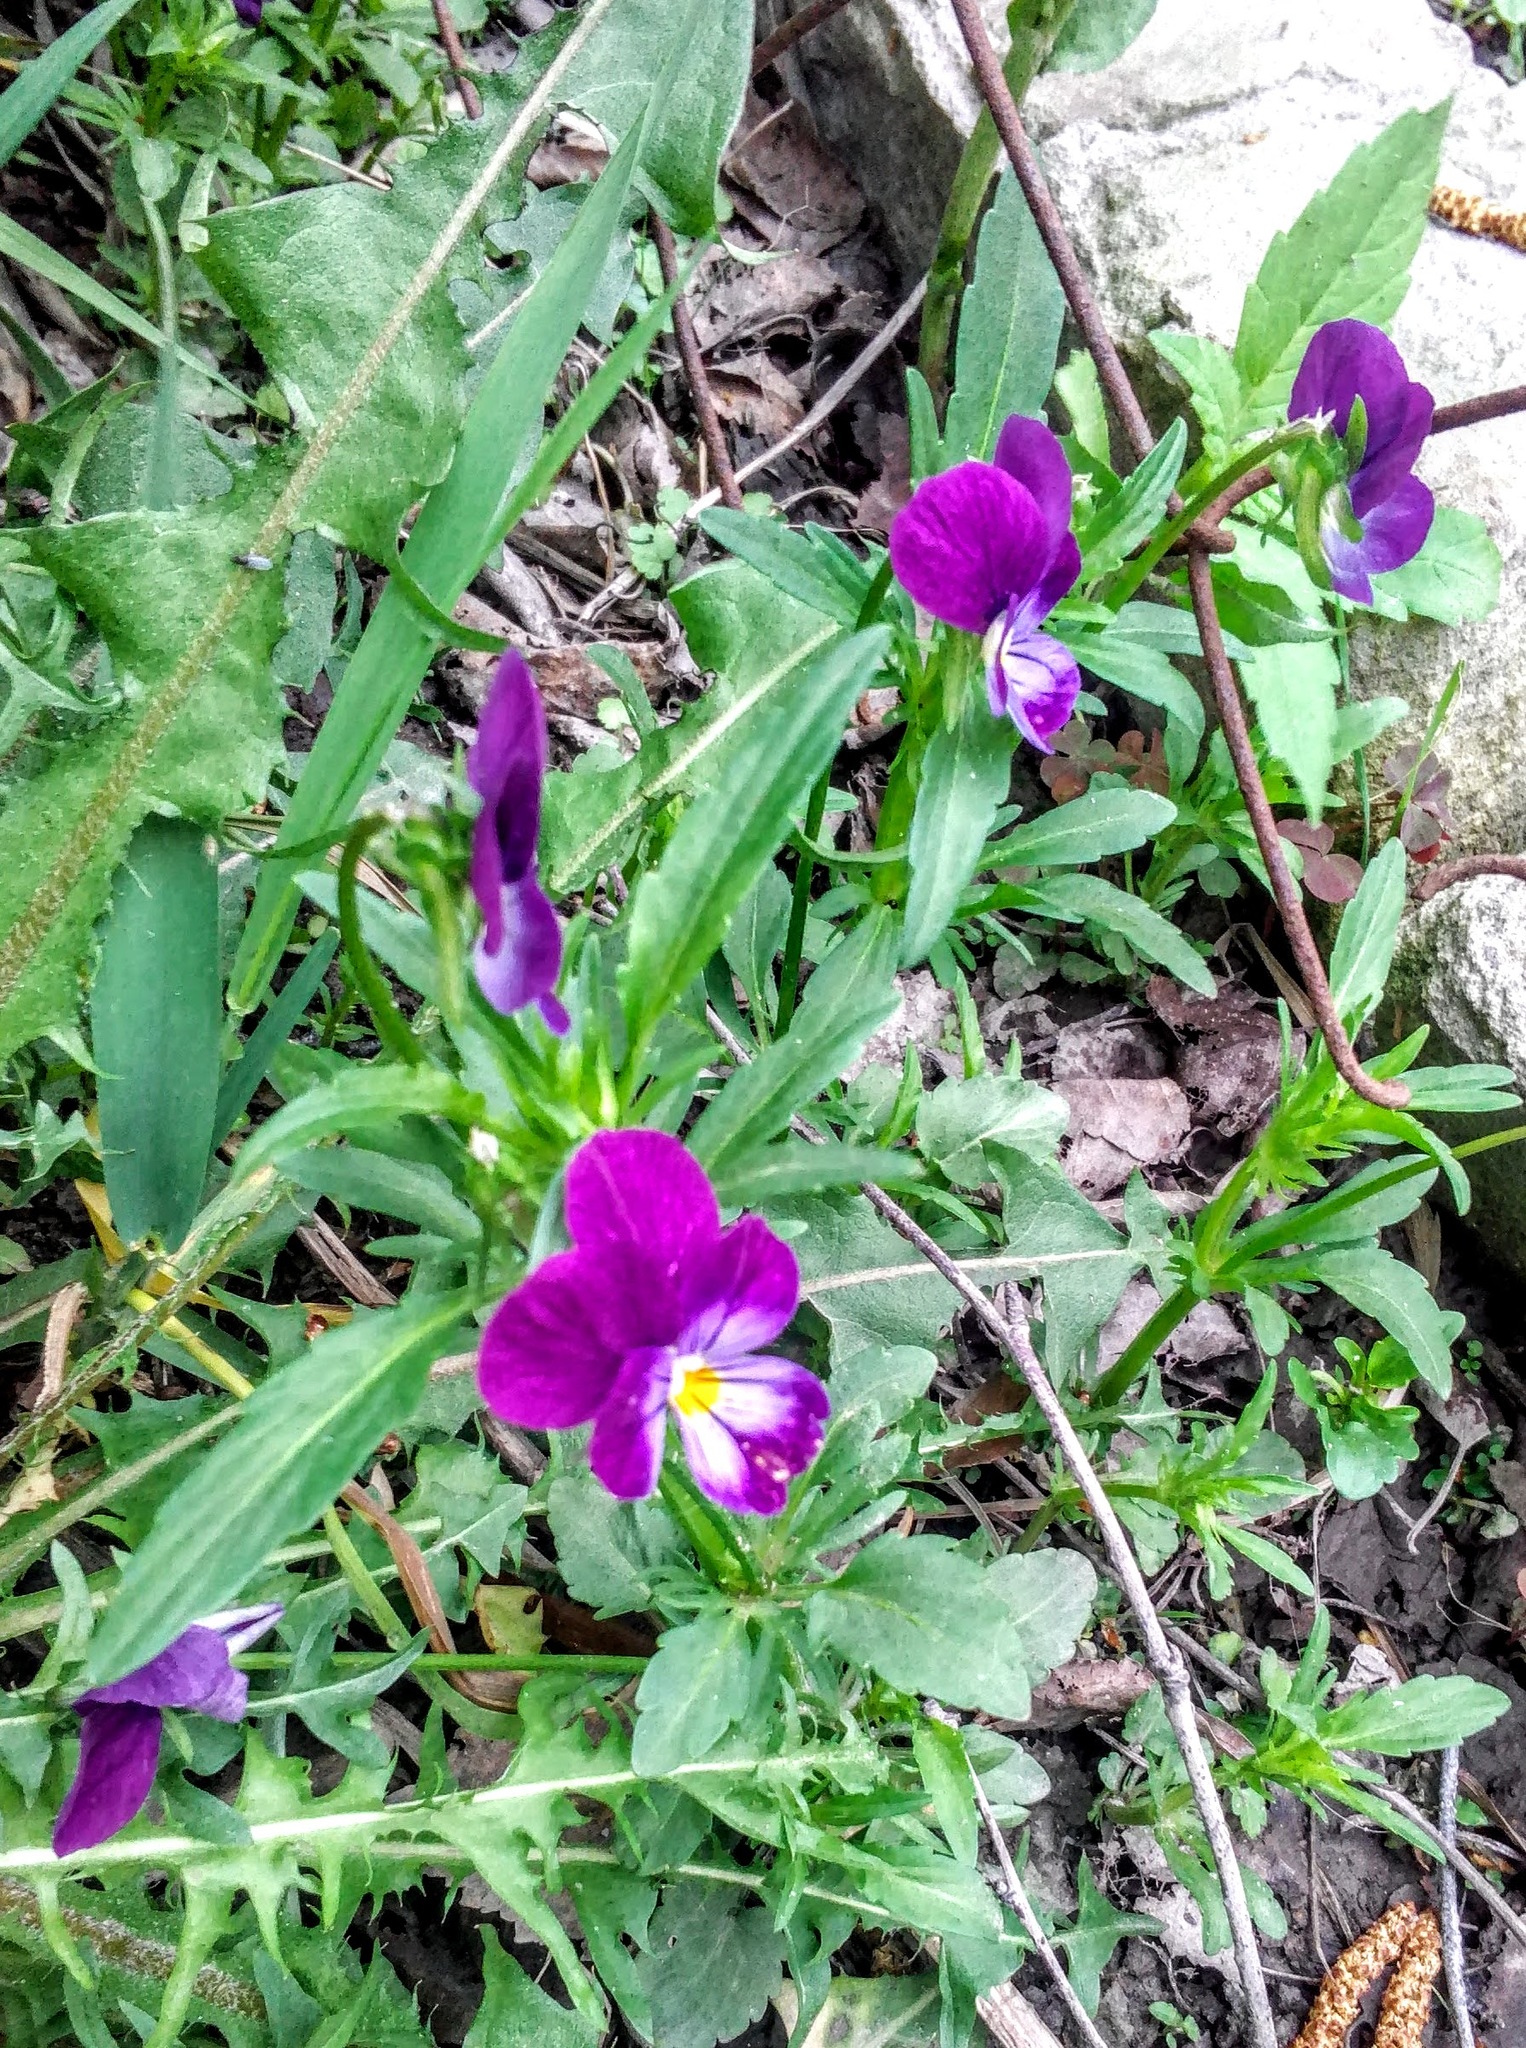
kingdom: Plantae
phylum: Tracheophyta
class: Magnoliopsida
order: Malpighiales
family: Violaceae
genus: Viola
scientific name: Viola wittrockiana
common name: Garden pansy
